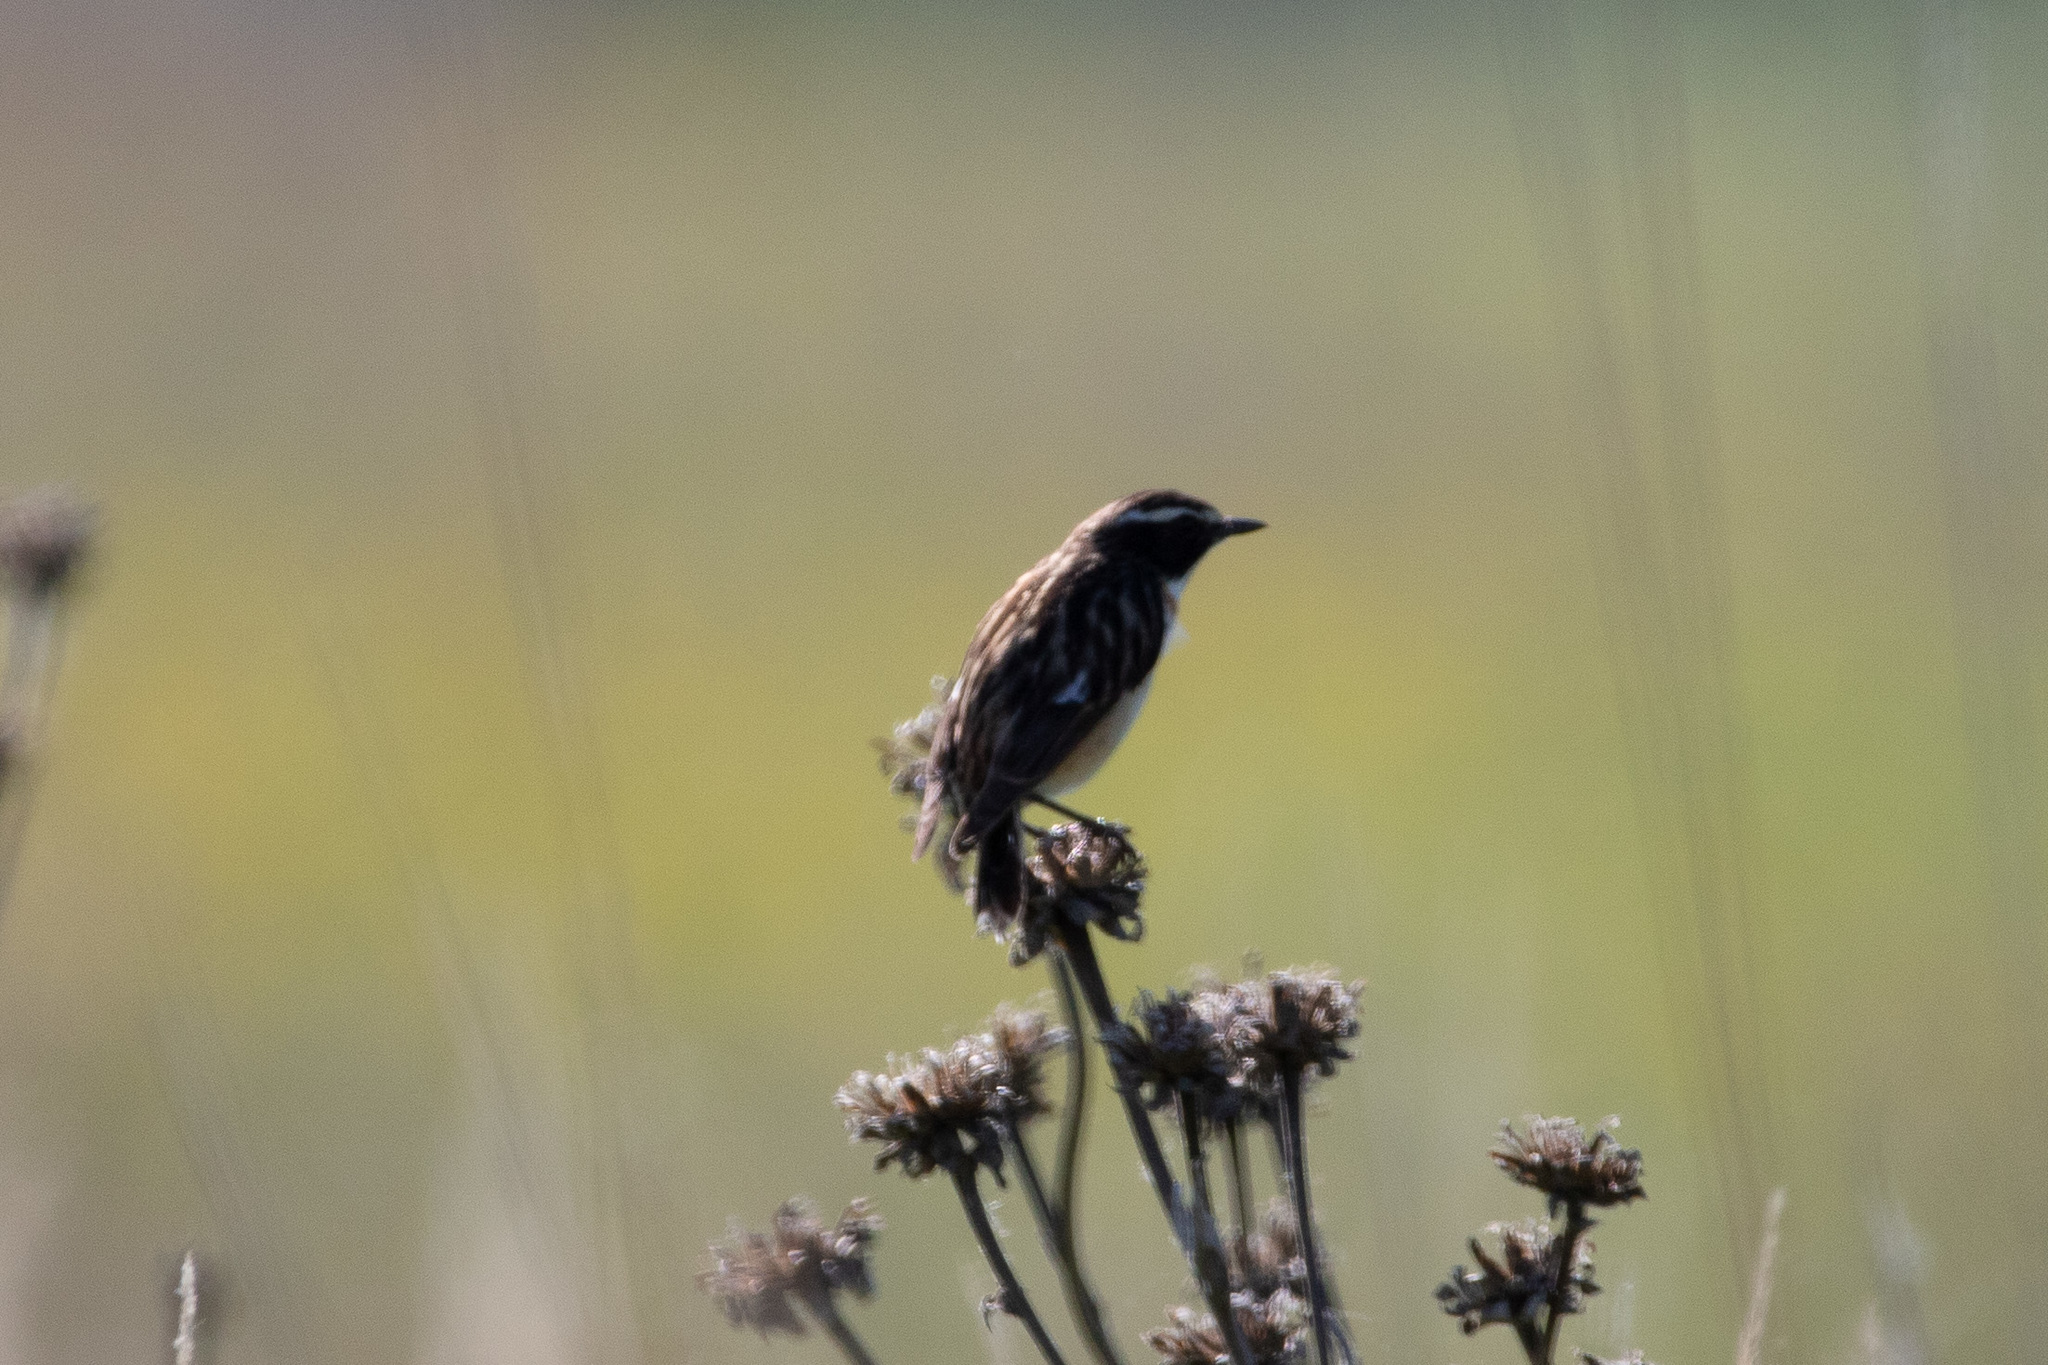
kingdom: Animalia
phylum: Chordata
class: Aves
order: Passeriformes
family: Muscicapidae
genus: Saxicola
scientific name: Saxicola rubetra
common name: Whinchat
